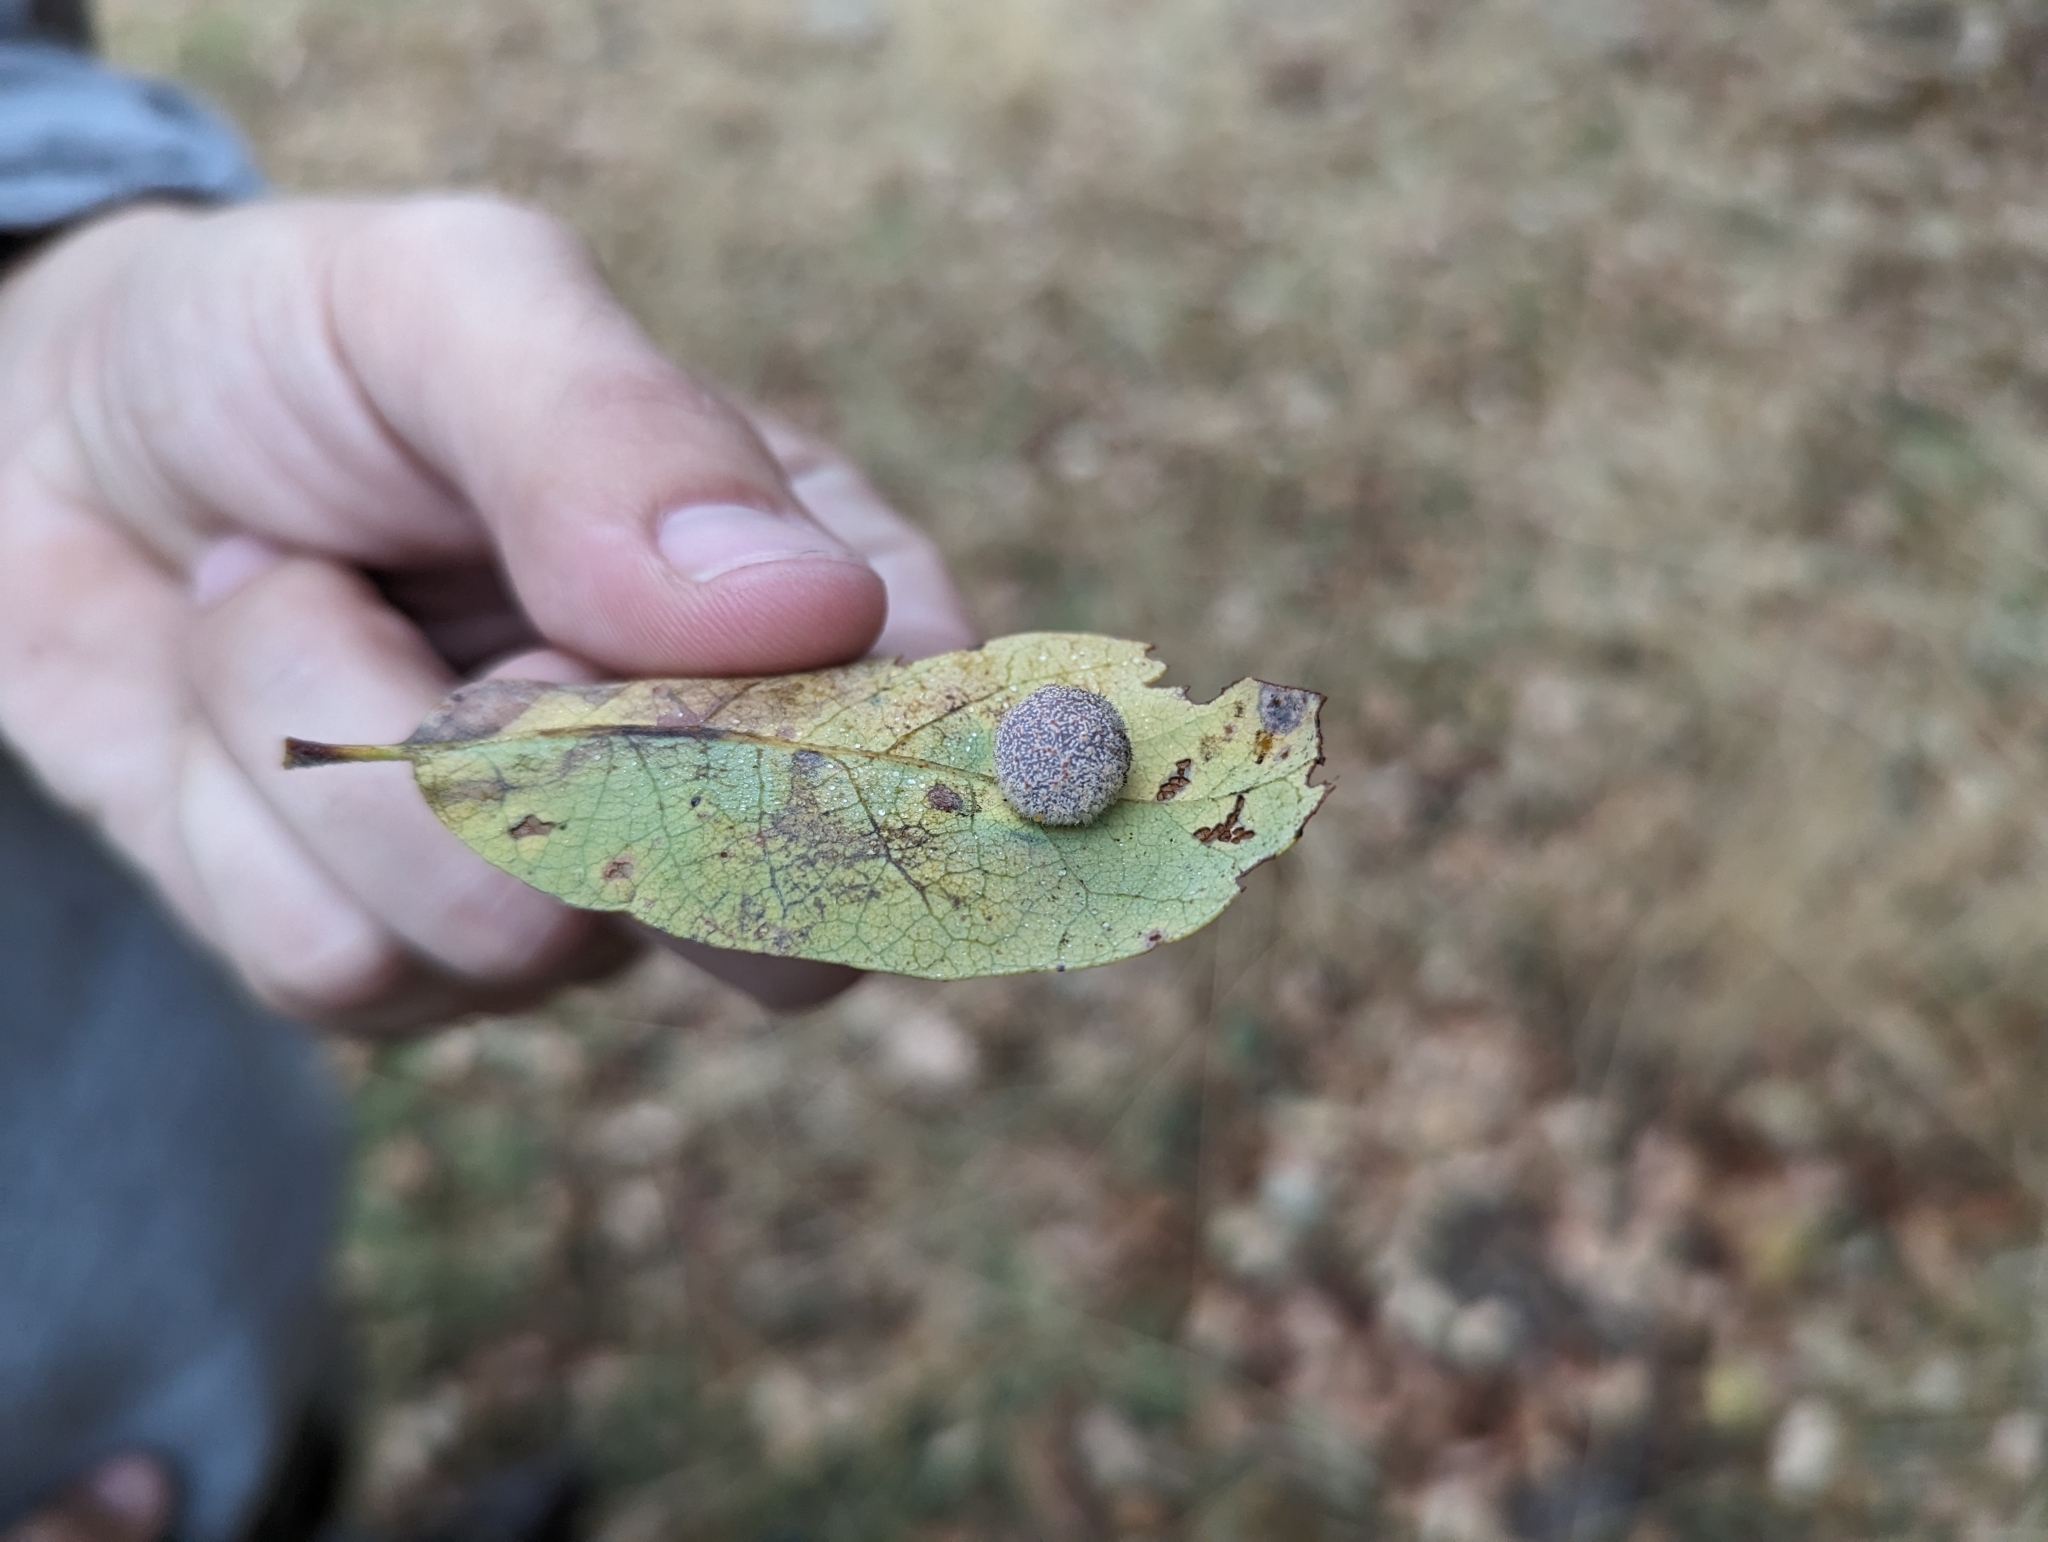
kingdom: Animalia
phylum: Arthropoda
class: Insecta
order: Hymenoptera
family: Cynipidae
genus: Cynips
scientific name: Cynips
